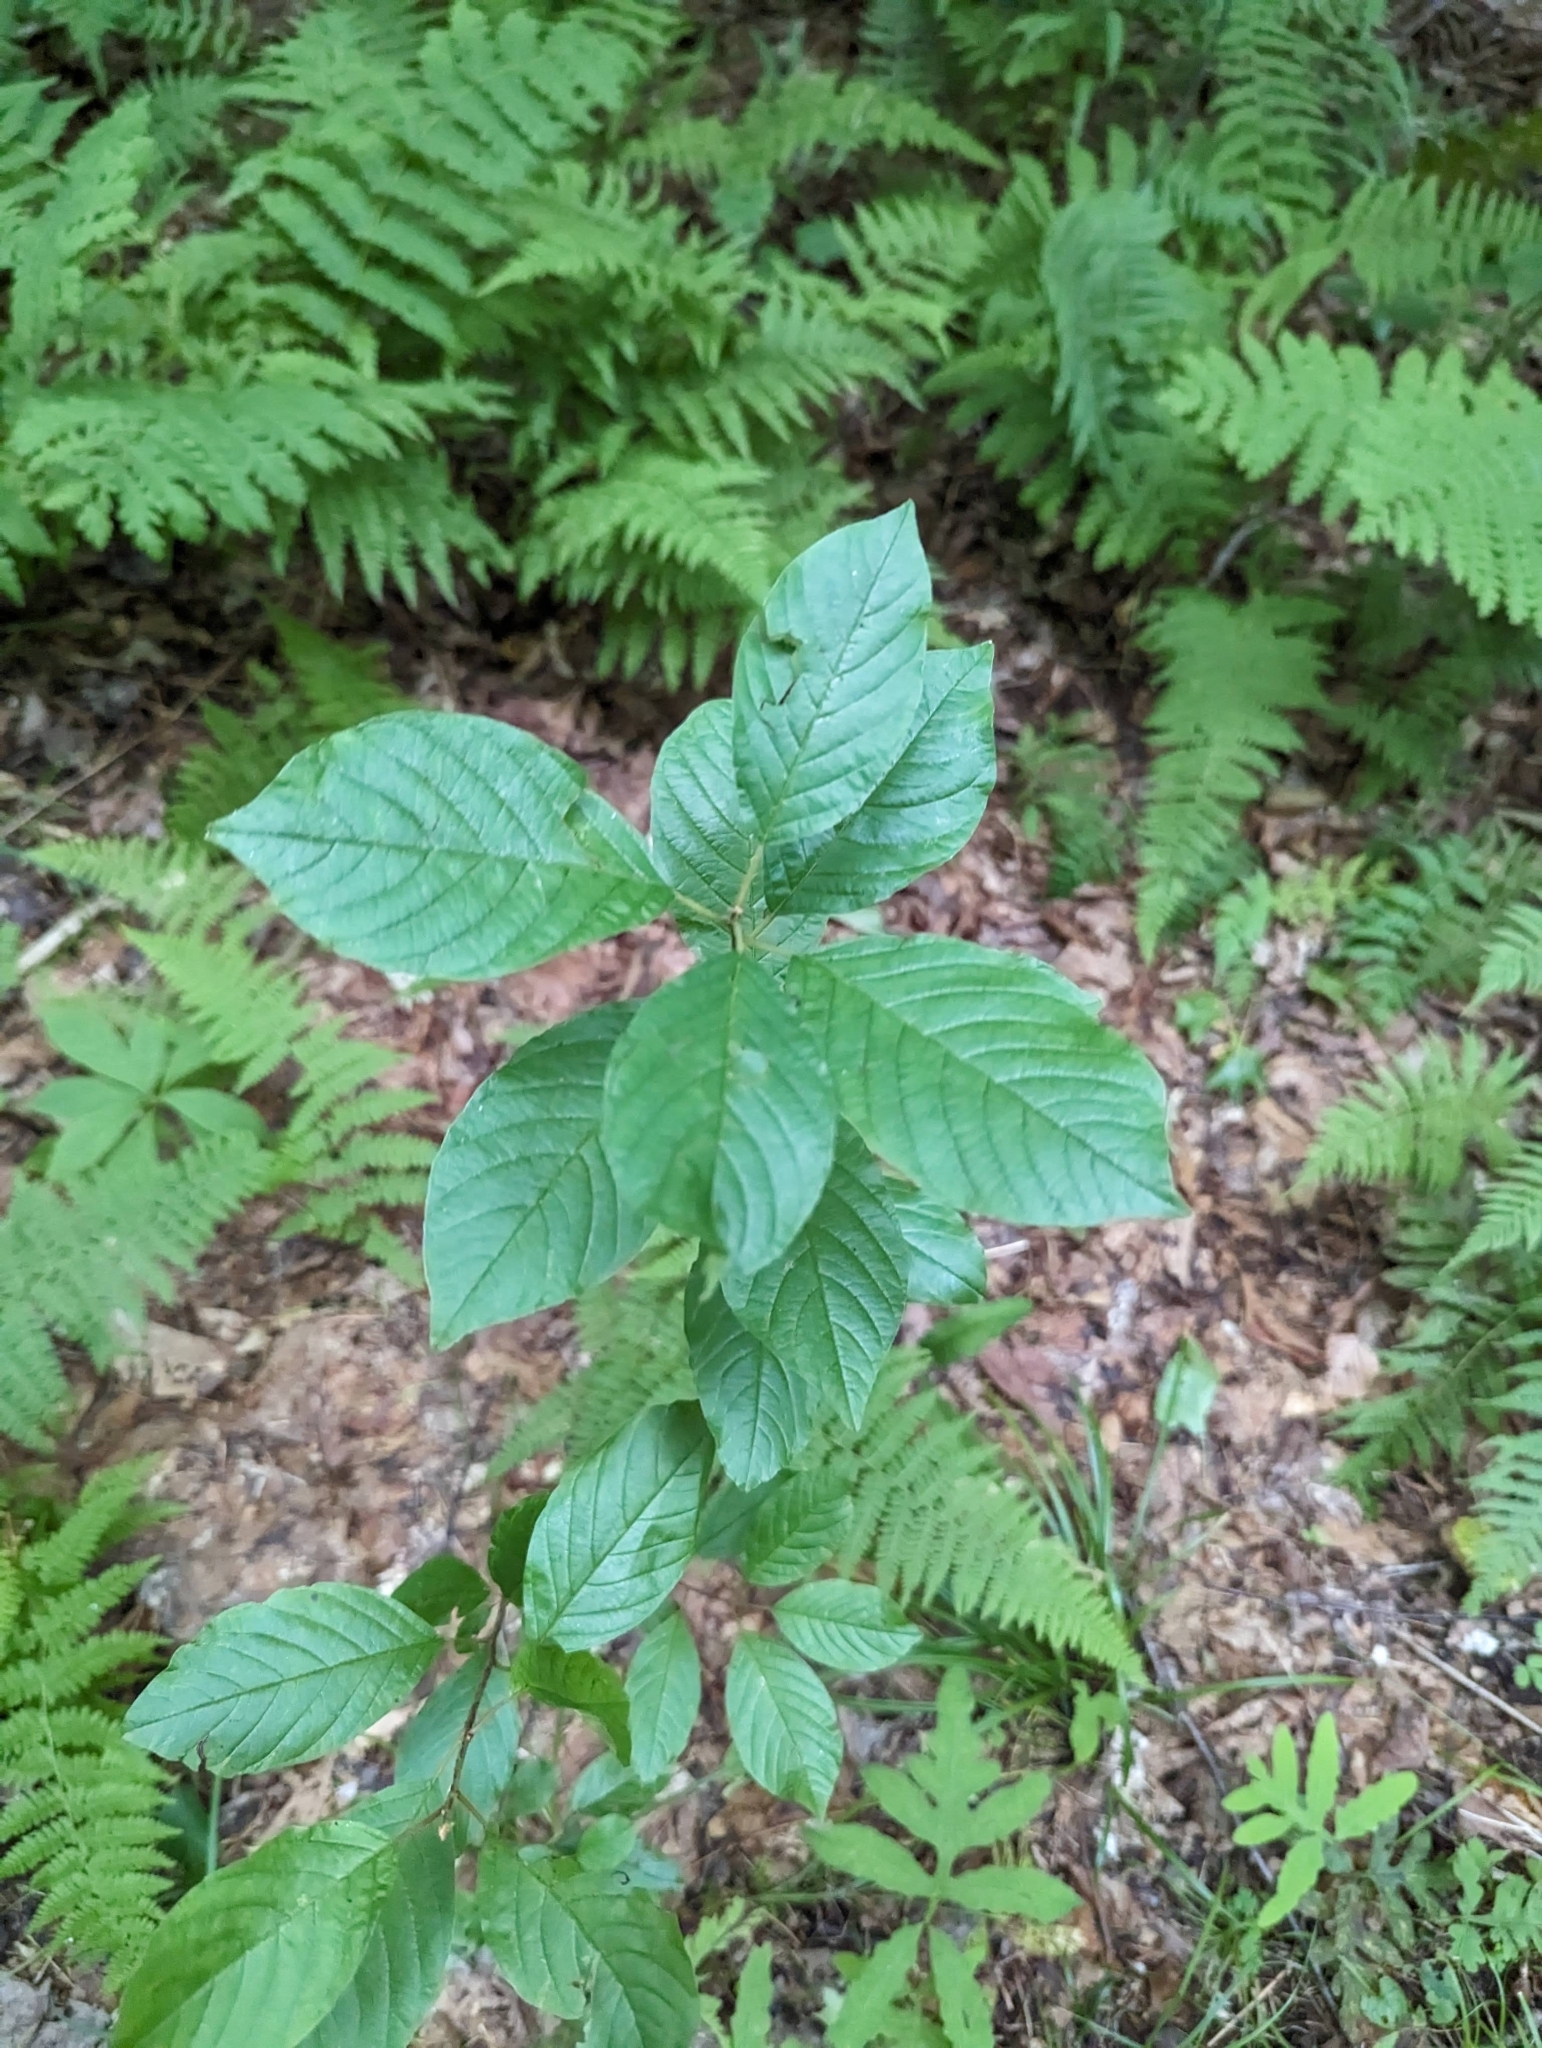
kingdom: Plantae
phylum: Tracheophyta
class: Magnoliopsida
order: Rosales
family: Rhamnaceae
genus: Frangula
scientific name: Frangula alnus
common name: Alder buckthorn
